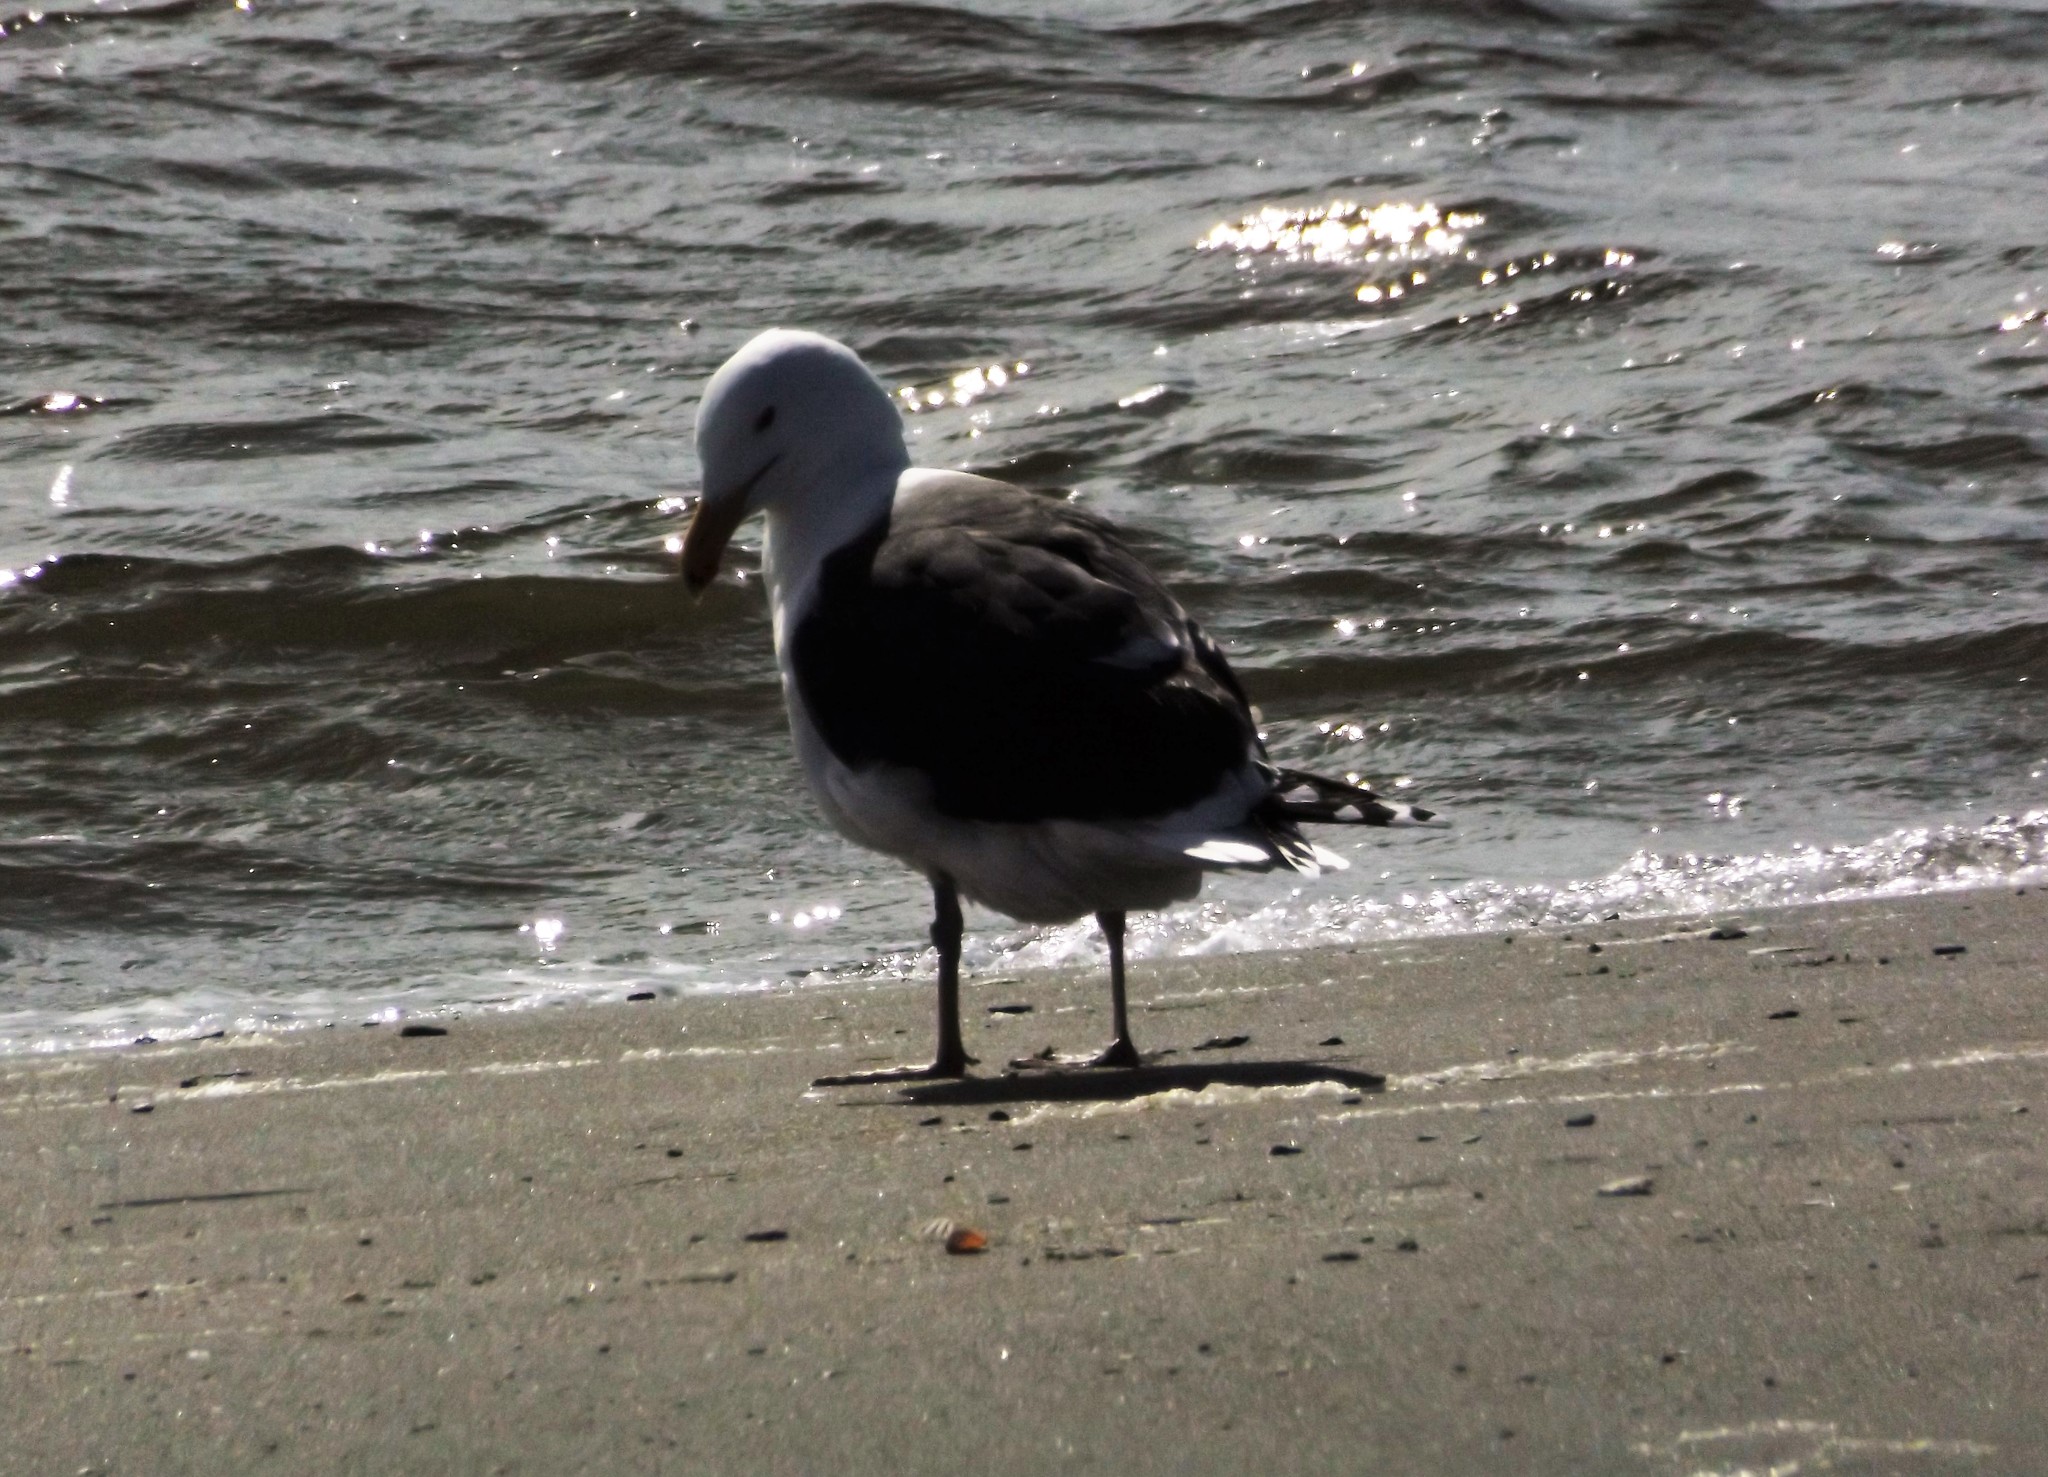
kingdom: Animalia
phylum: Chordata
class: Aves
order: Charadriiformes
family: Laridae
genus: Larus
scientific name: Larus marinus
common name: Great black-backed gull
